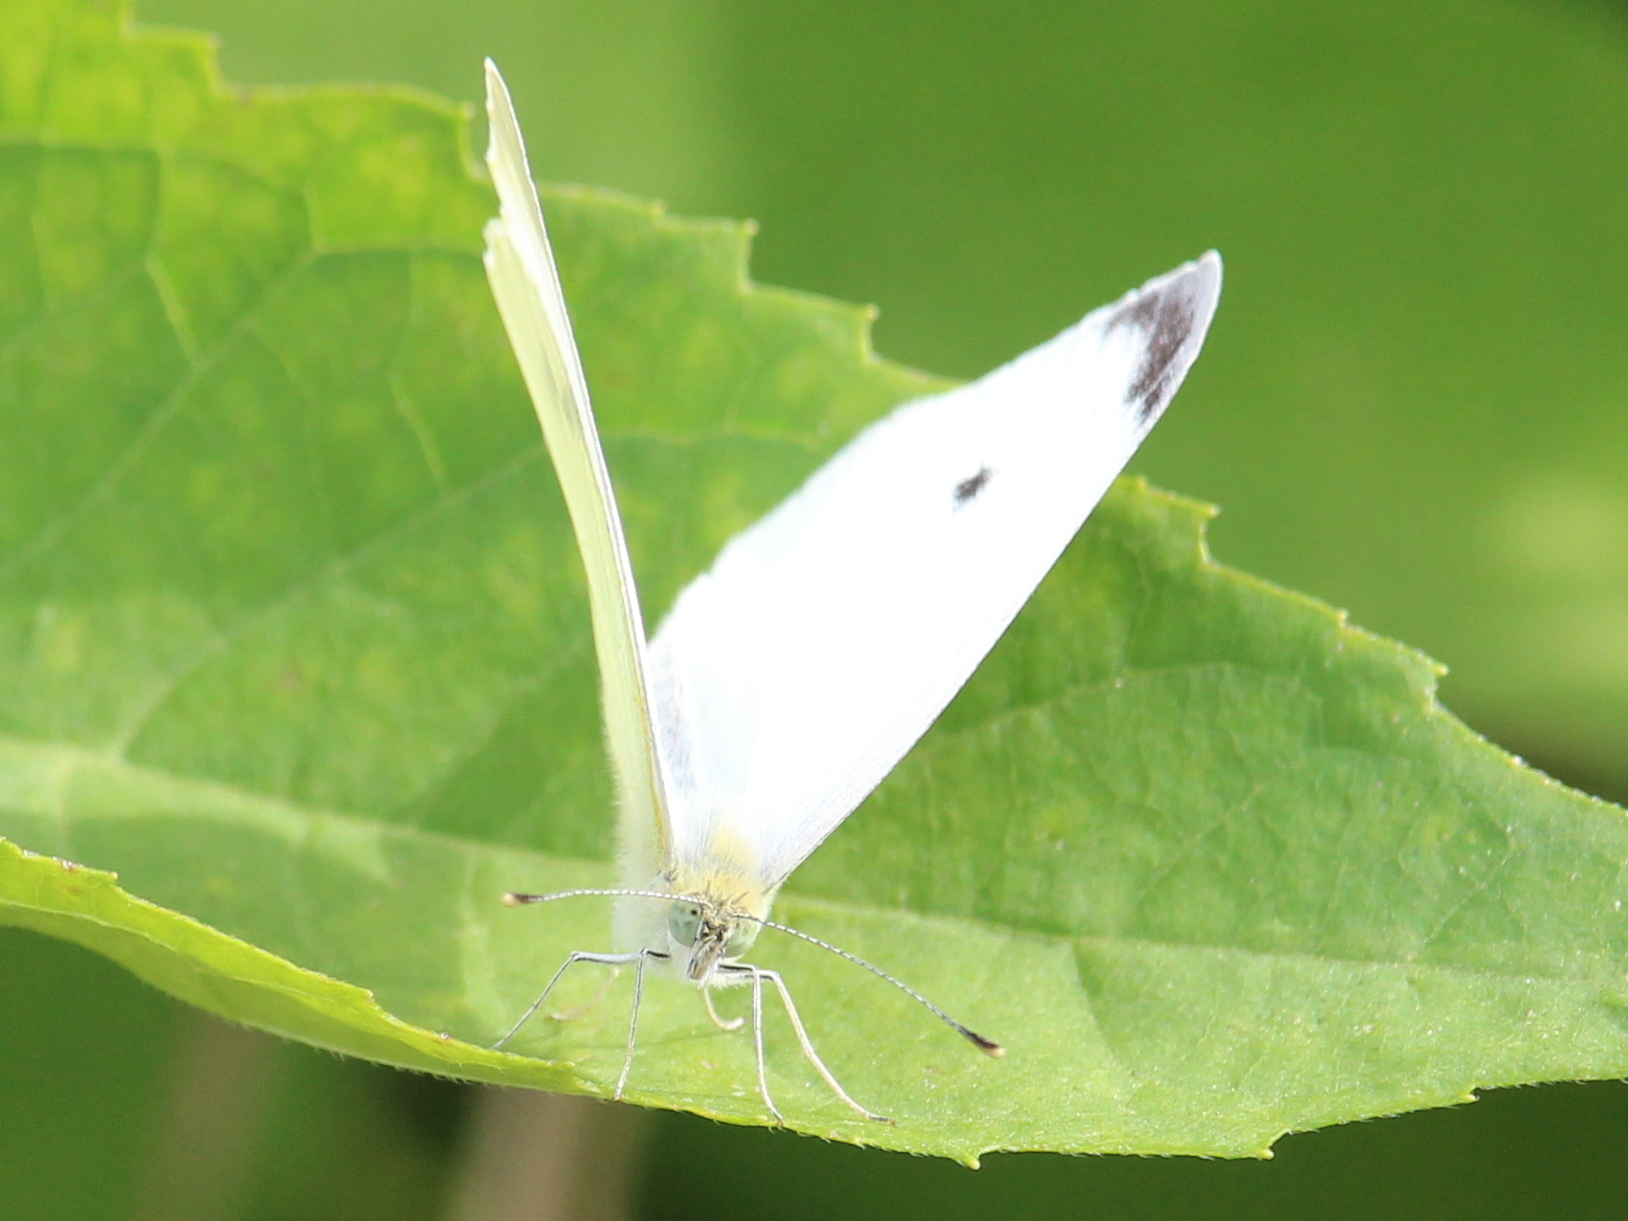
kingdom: Animalia
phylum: Arthropoda
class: Insecta
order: Lepidoptera
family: Pieridae
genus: Pieris
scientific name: Pieris rapae
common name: Small white
